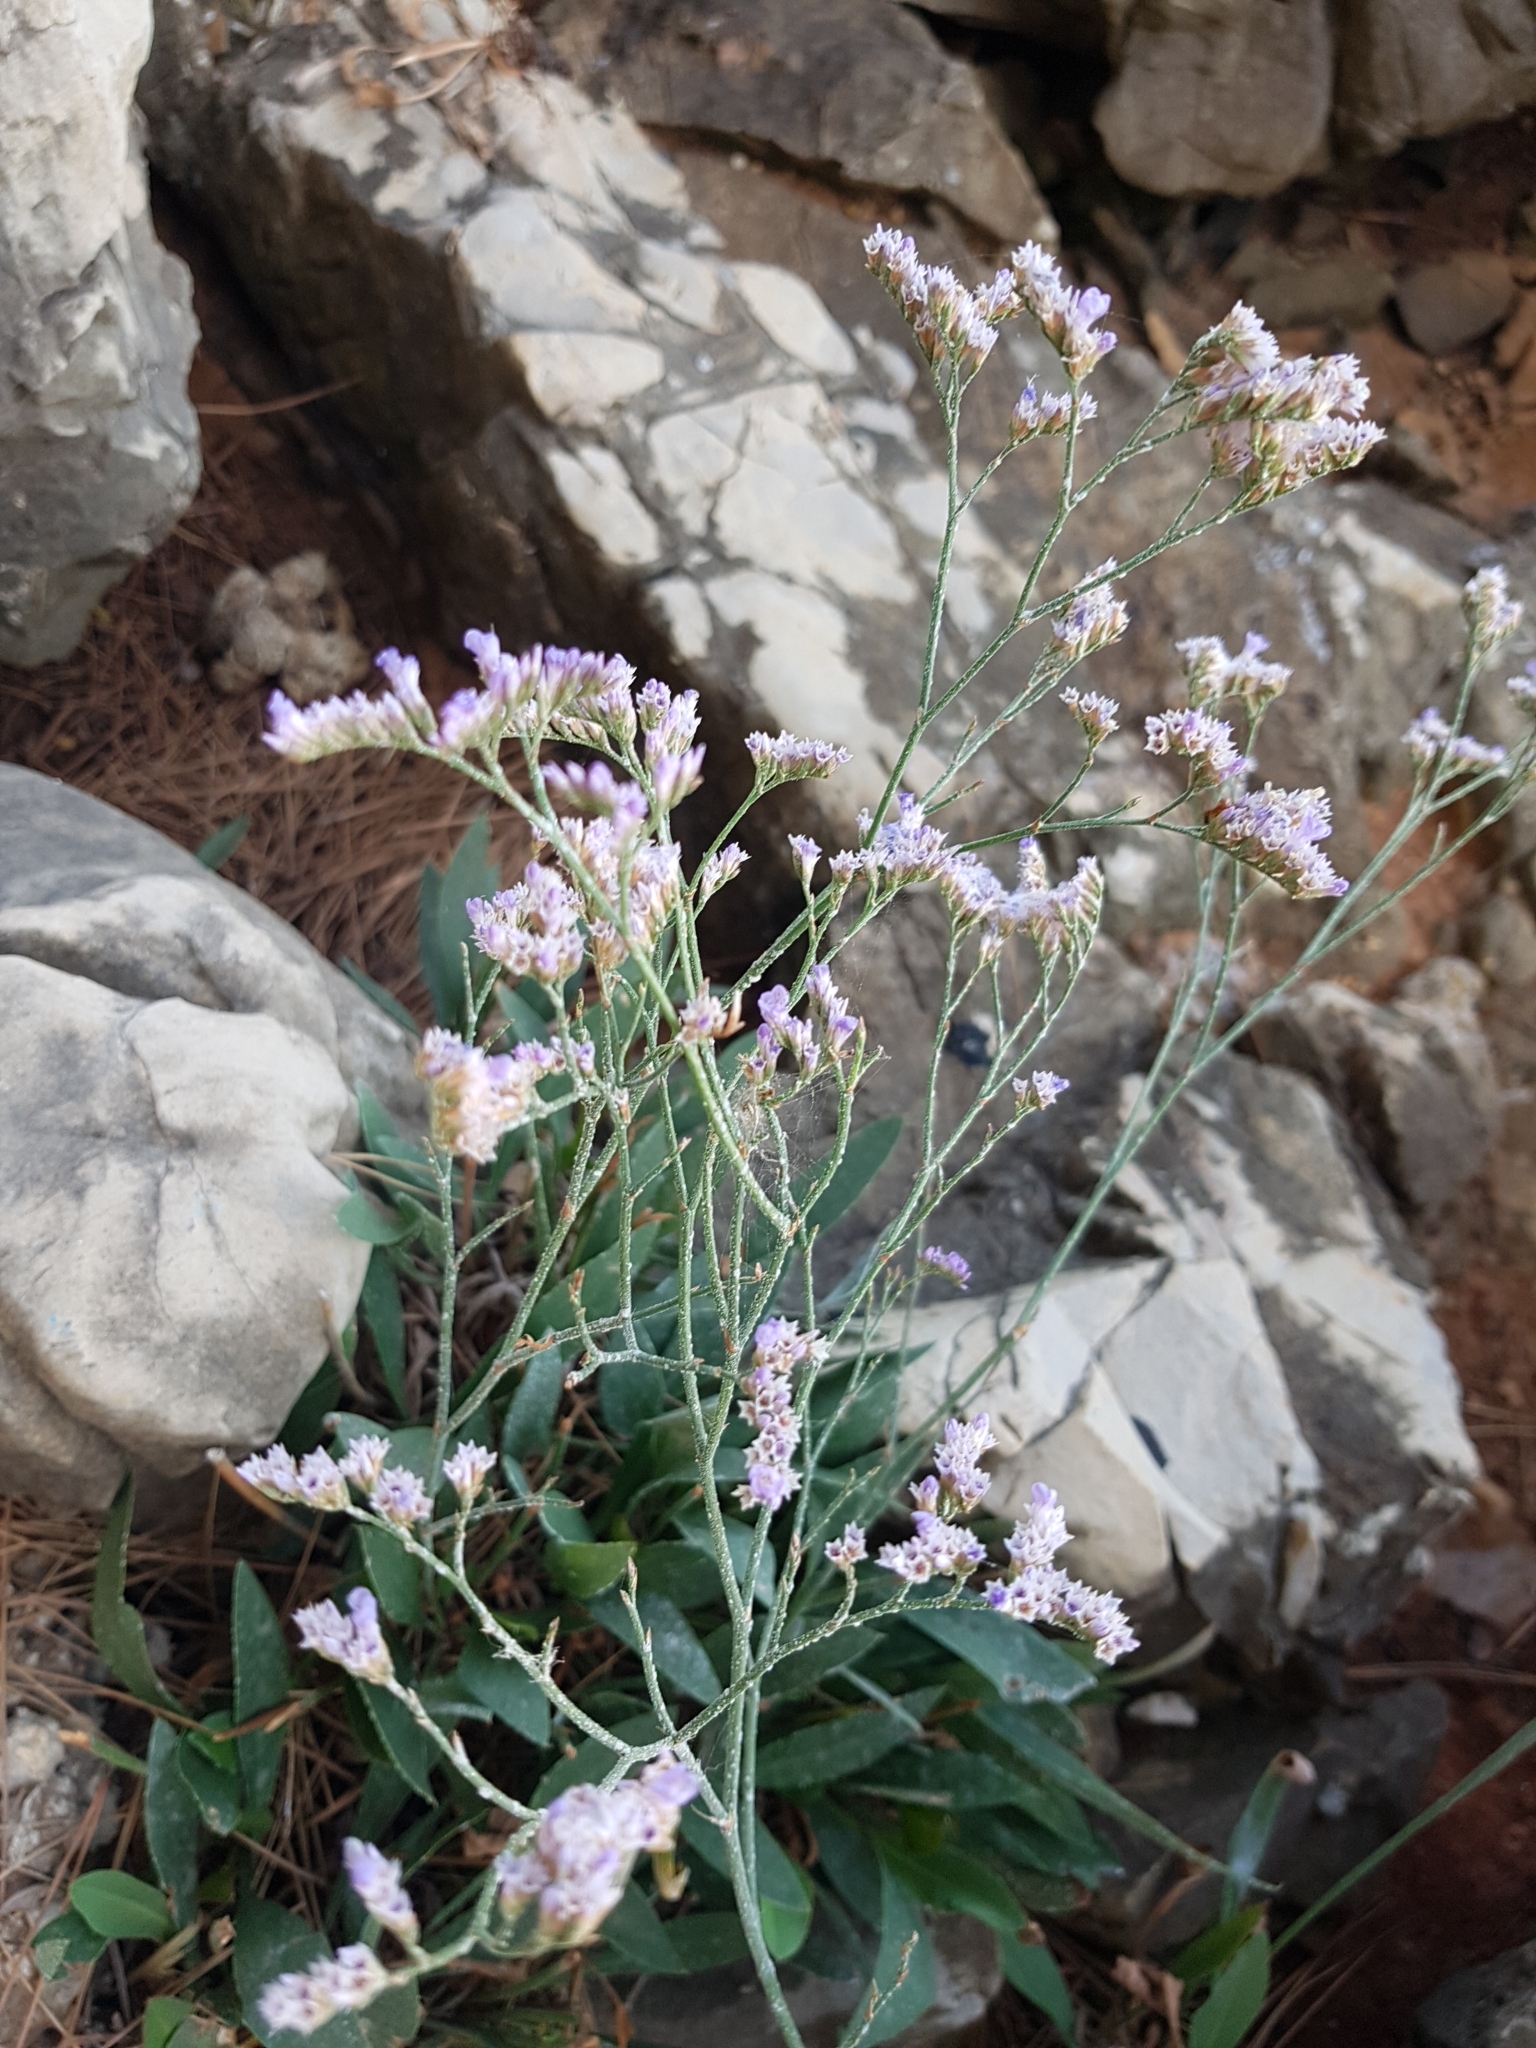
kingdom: Plantae
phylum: Tracheophyta
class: Magnoliopsida
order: Caryophyllales
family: Plumbaginaceae
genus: Limonium
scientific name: Limonium narbonense
